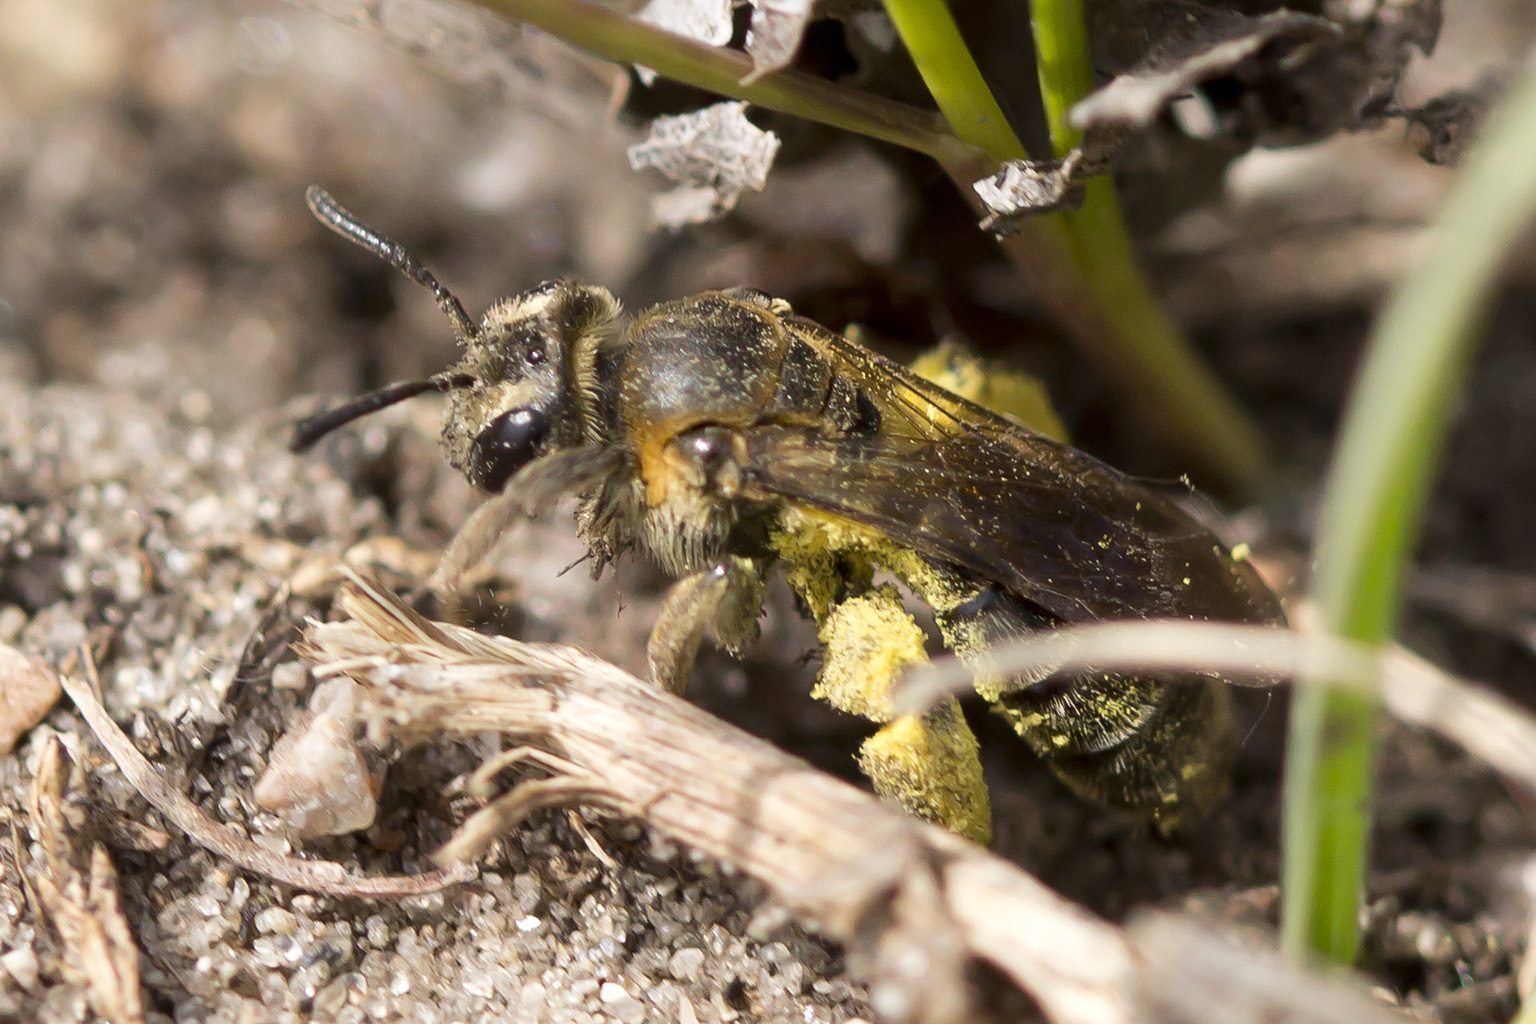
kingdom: Animalia
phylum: Arthropoda
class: Insecta
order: Hymenoptera
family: Andrenidae
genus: Andrena
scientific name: Andrena alleghaniensis
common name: Allegheny mining bee
